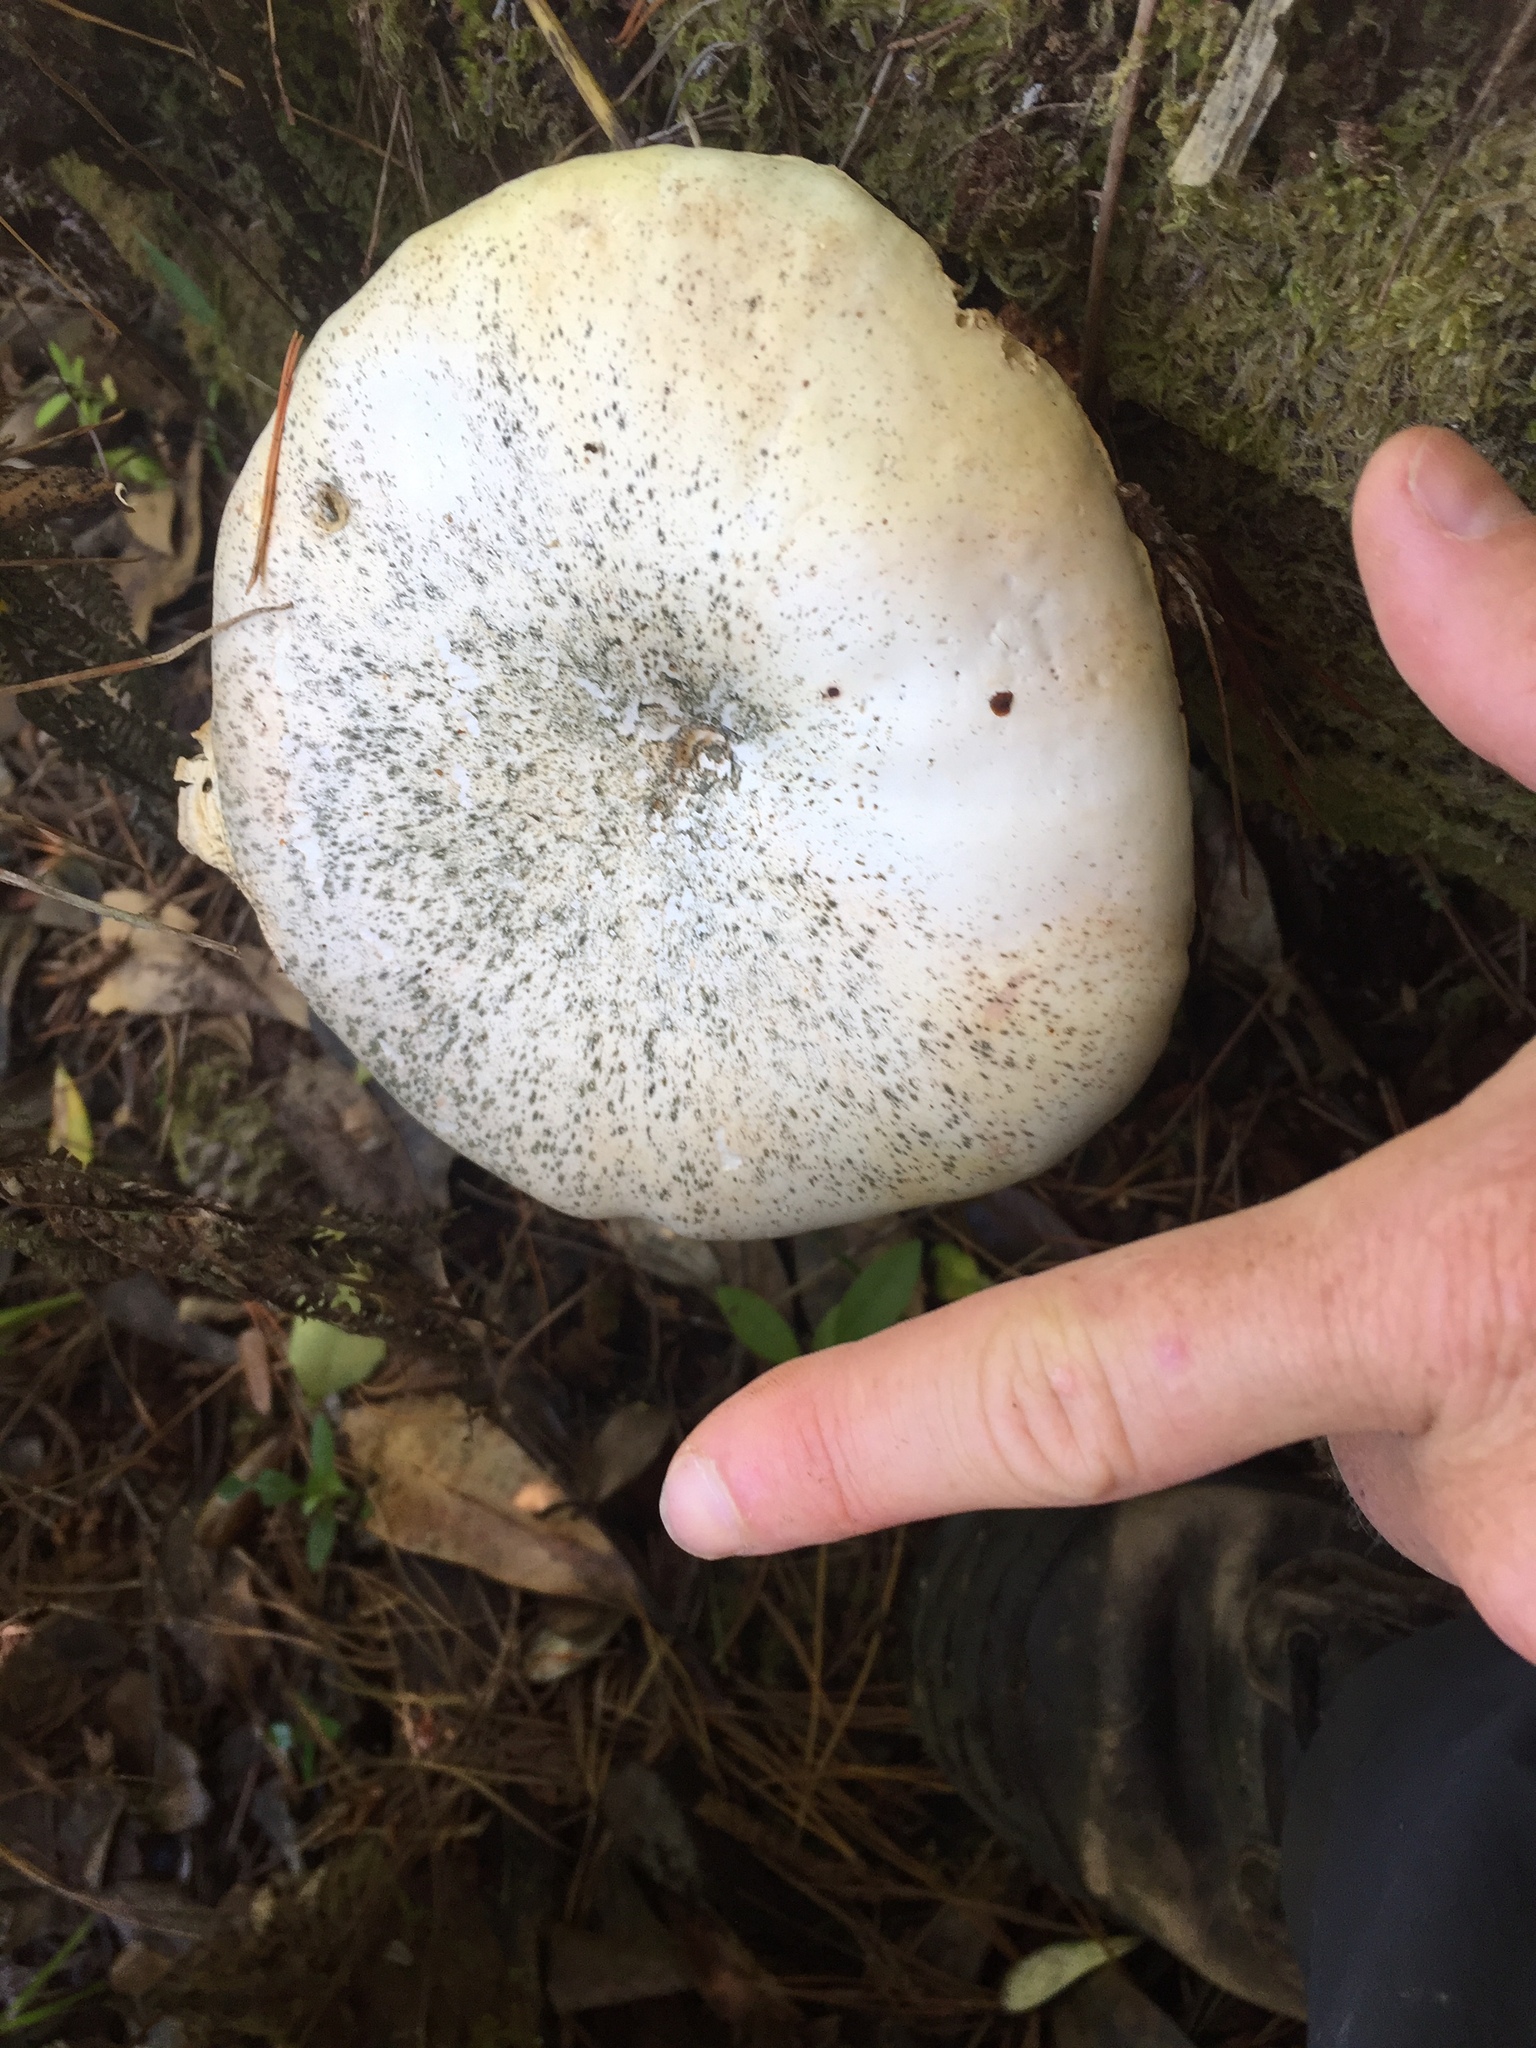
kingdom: Fungi
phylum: Basidiomycota
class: Agaricomycetes
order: Gloeophyllales
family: Gloeophyllaceae
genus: Neolentinus
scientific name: Neolentinus lepideus
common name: Scaly sawgill
